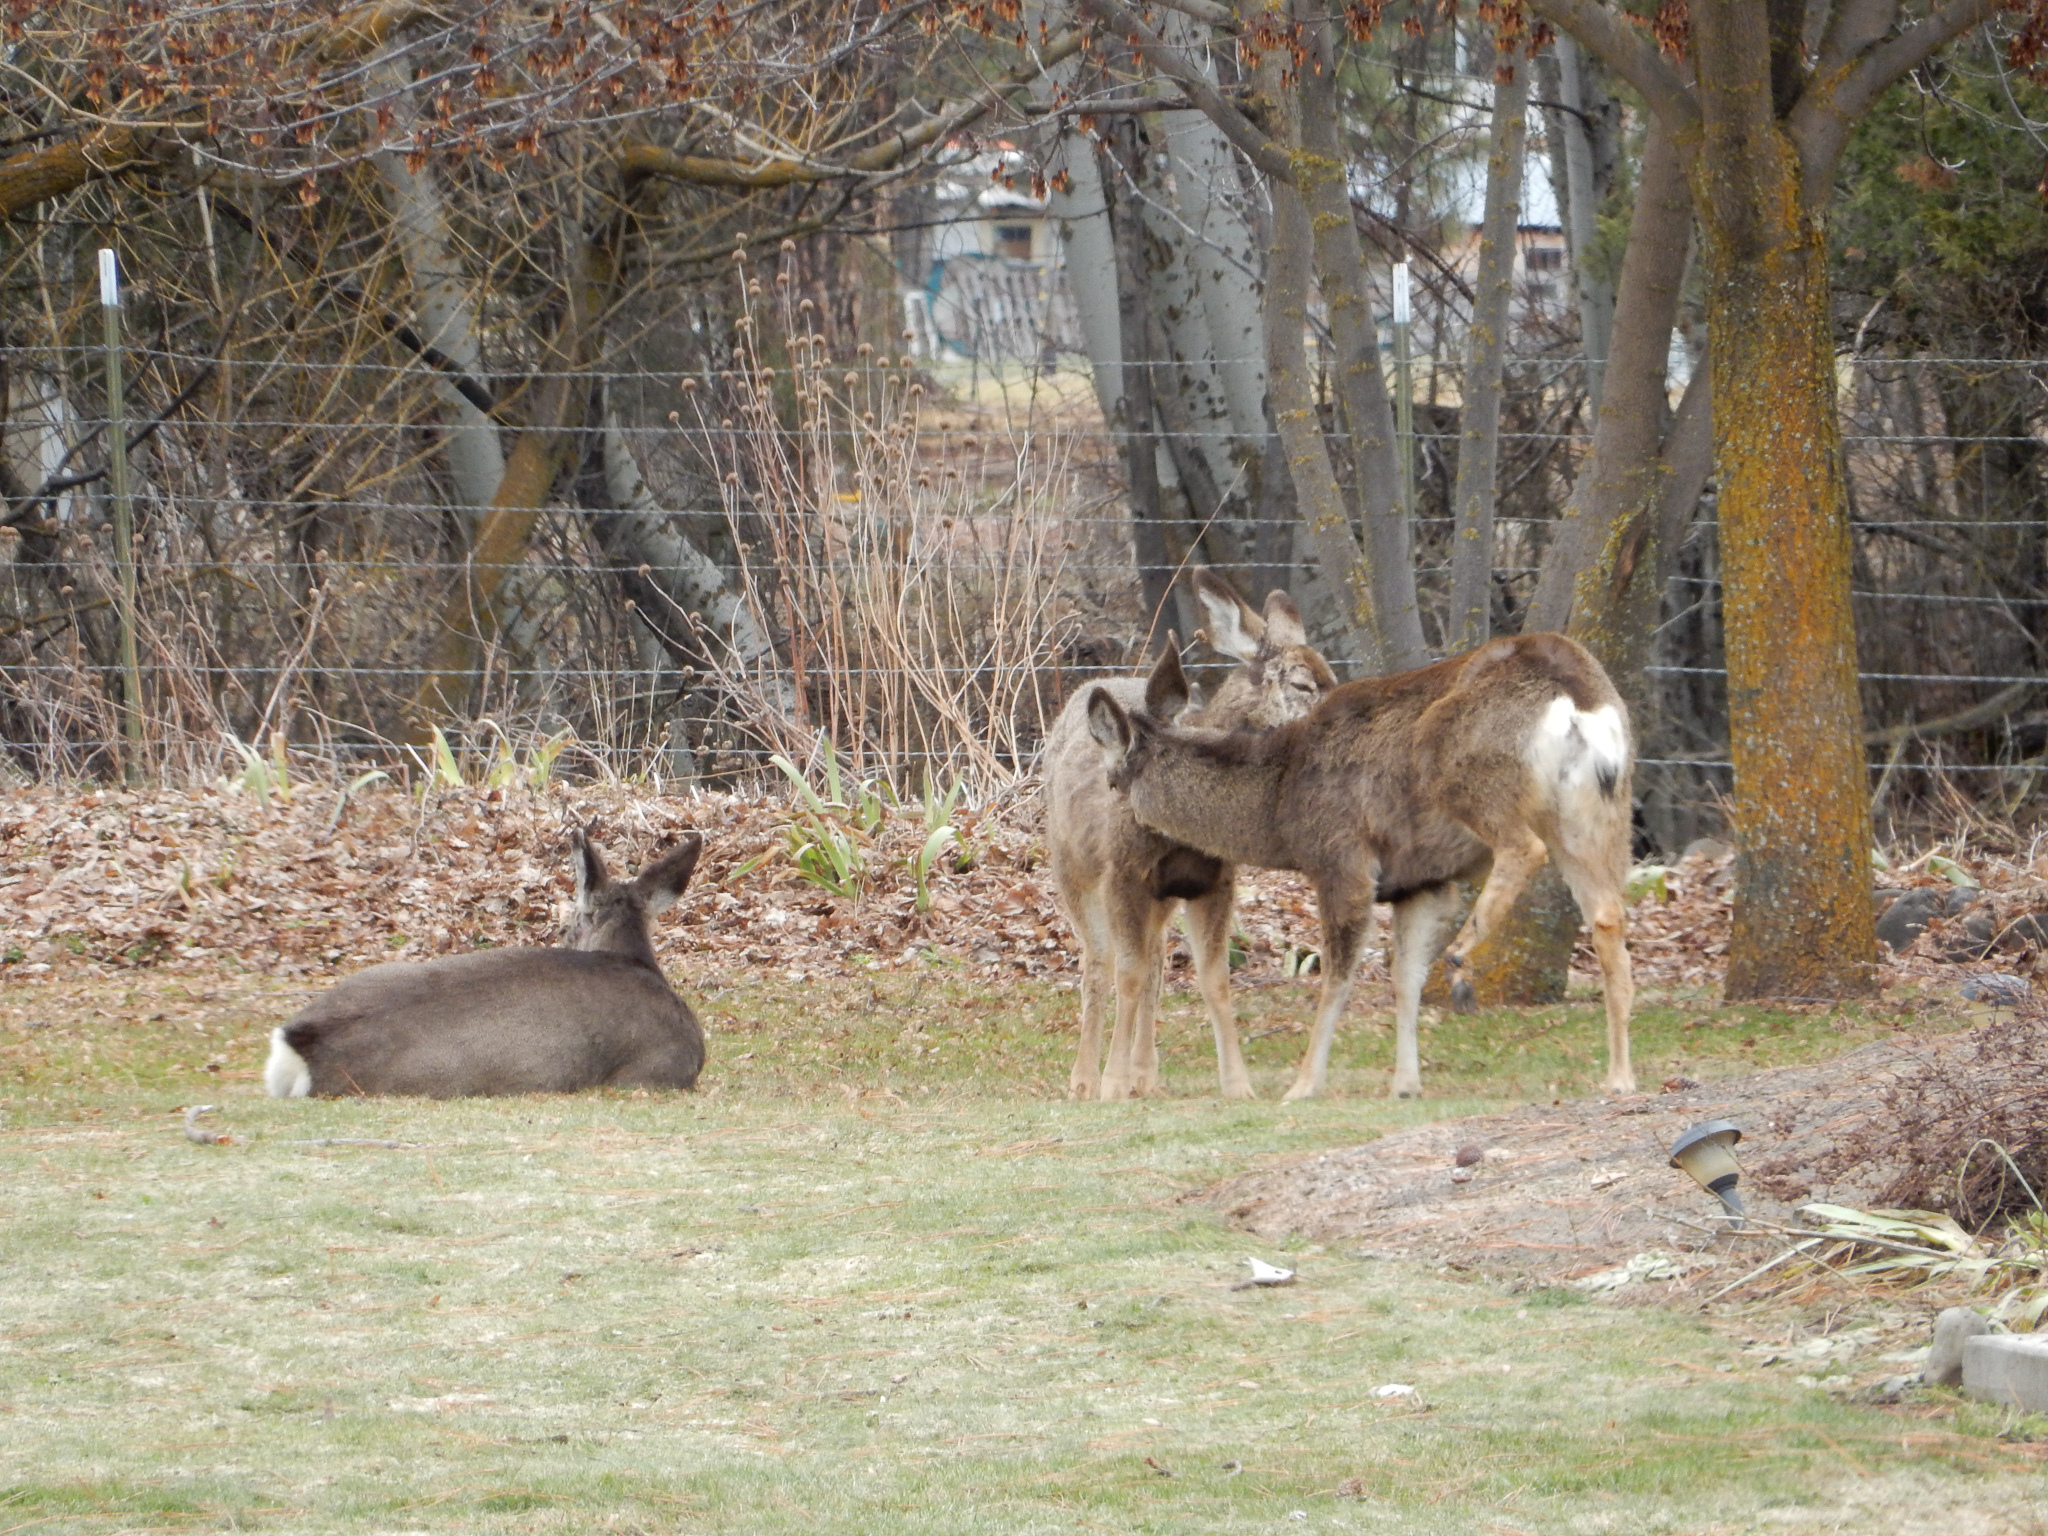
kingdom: Animalia
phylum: Chordata
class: Mammalia
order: Artiodactyla
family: Cervidae
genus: Odocoileus
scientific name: Odocoileus hemionus
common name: Mule deer
